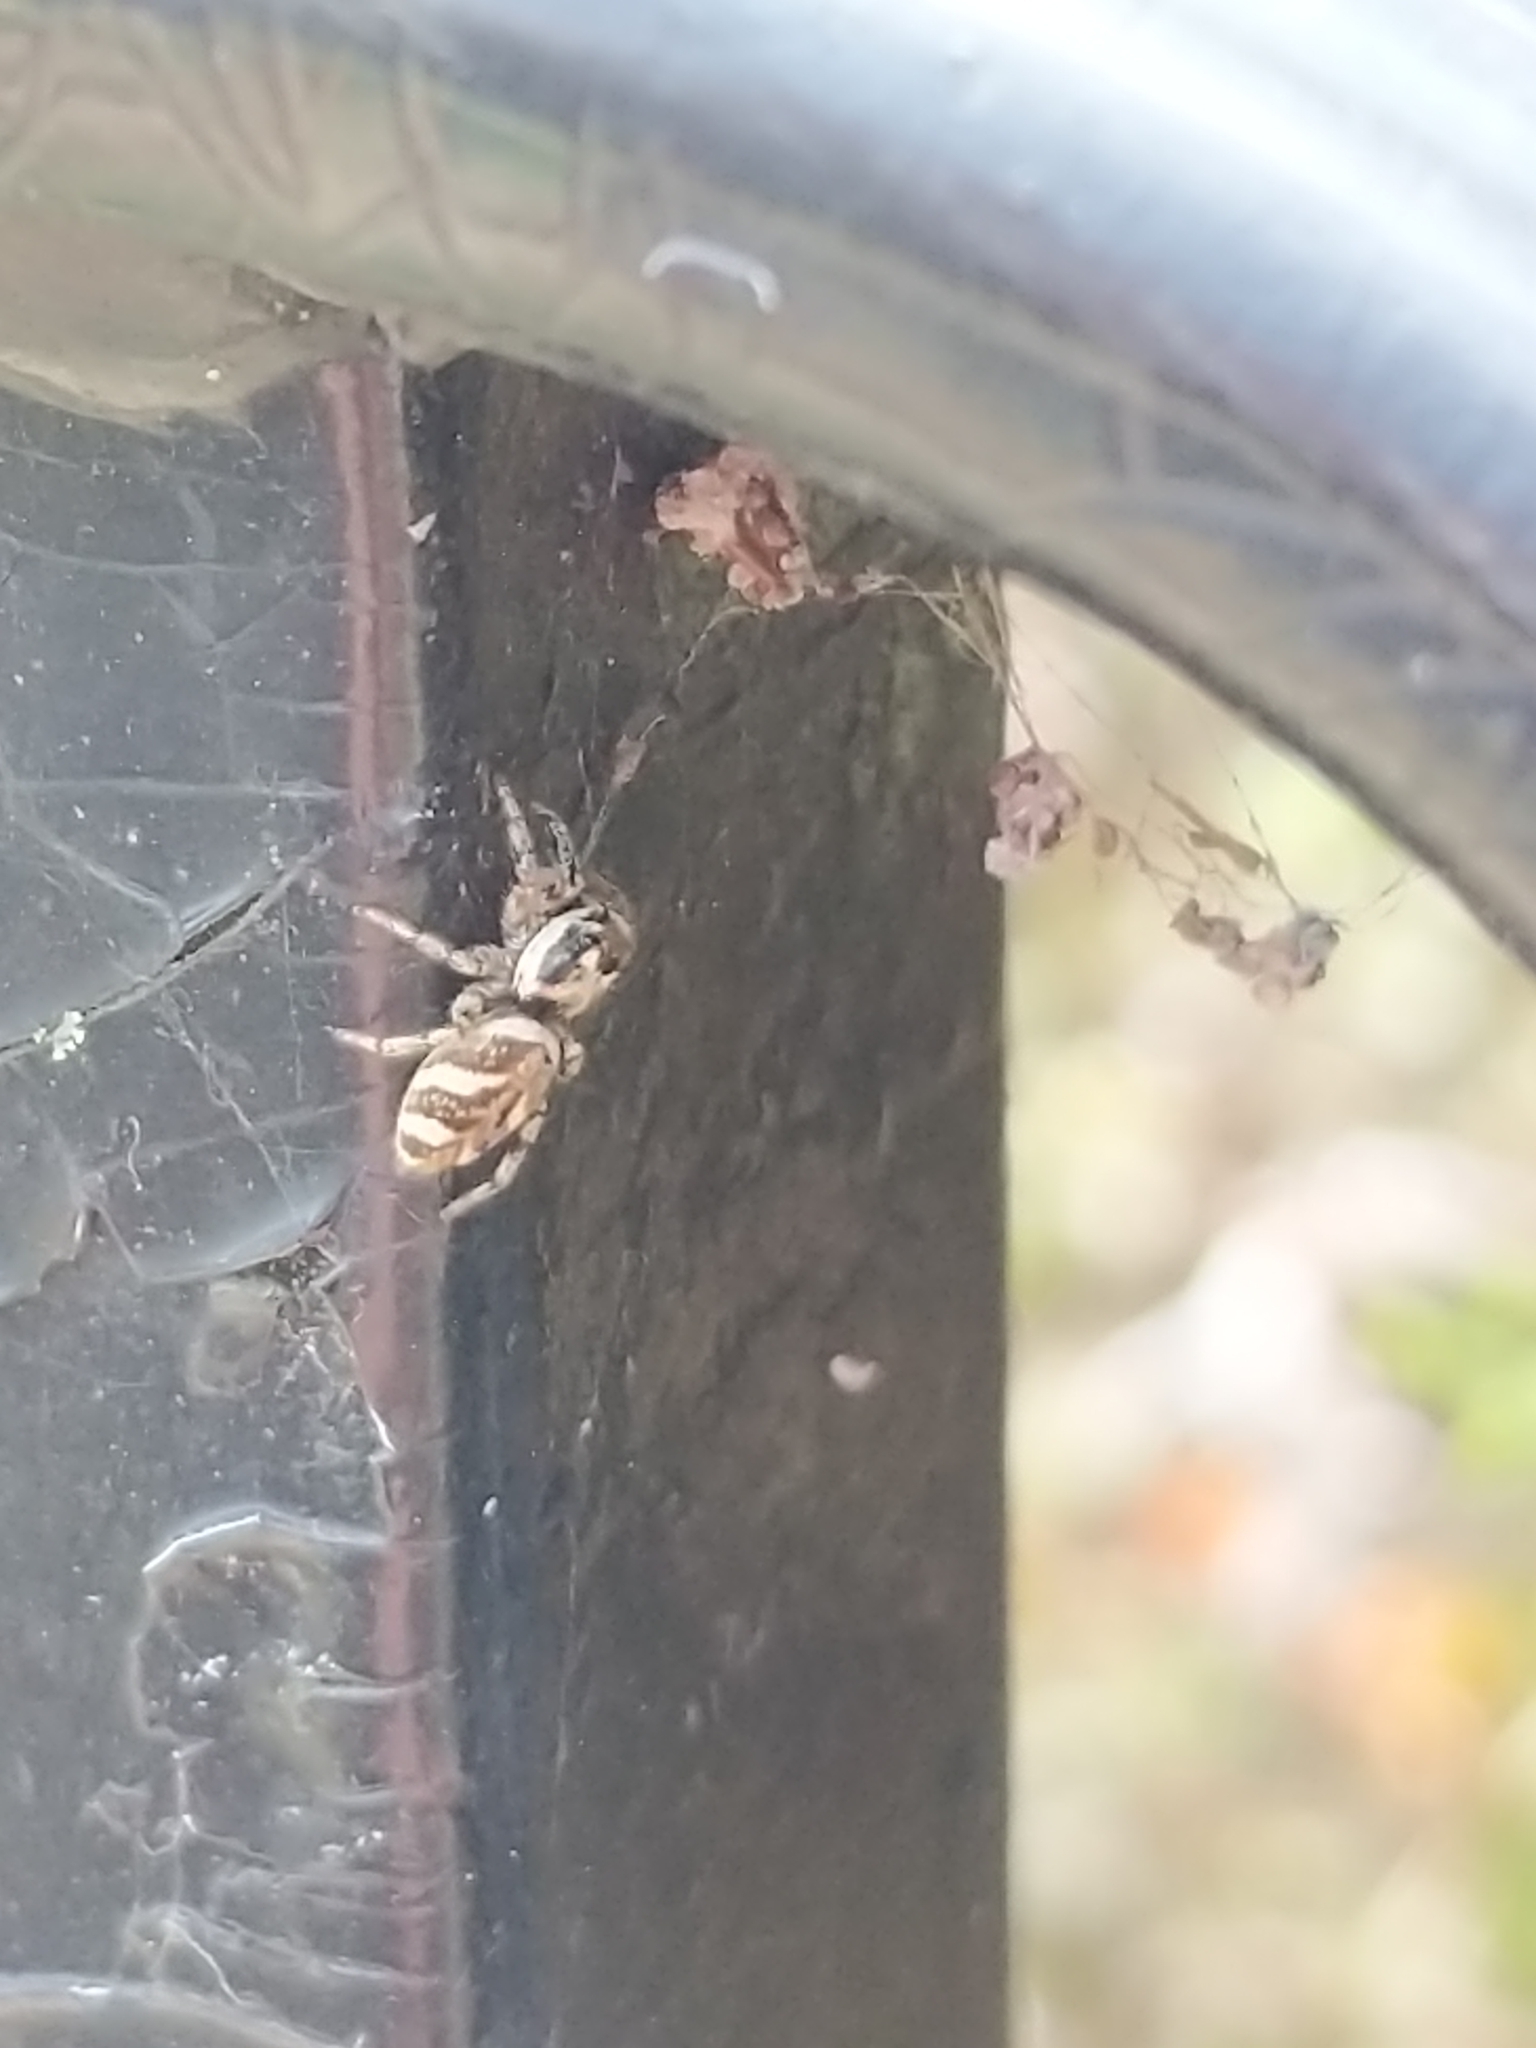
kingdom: Animalia
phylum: Arthropoda
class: Arachnida
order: Araneae
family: Salticidae
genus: Salticus
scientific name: Salticus scenicus
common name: Zebra jumper
